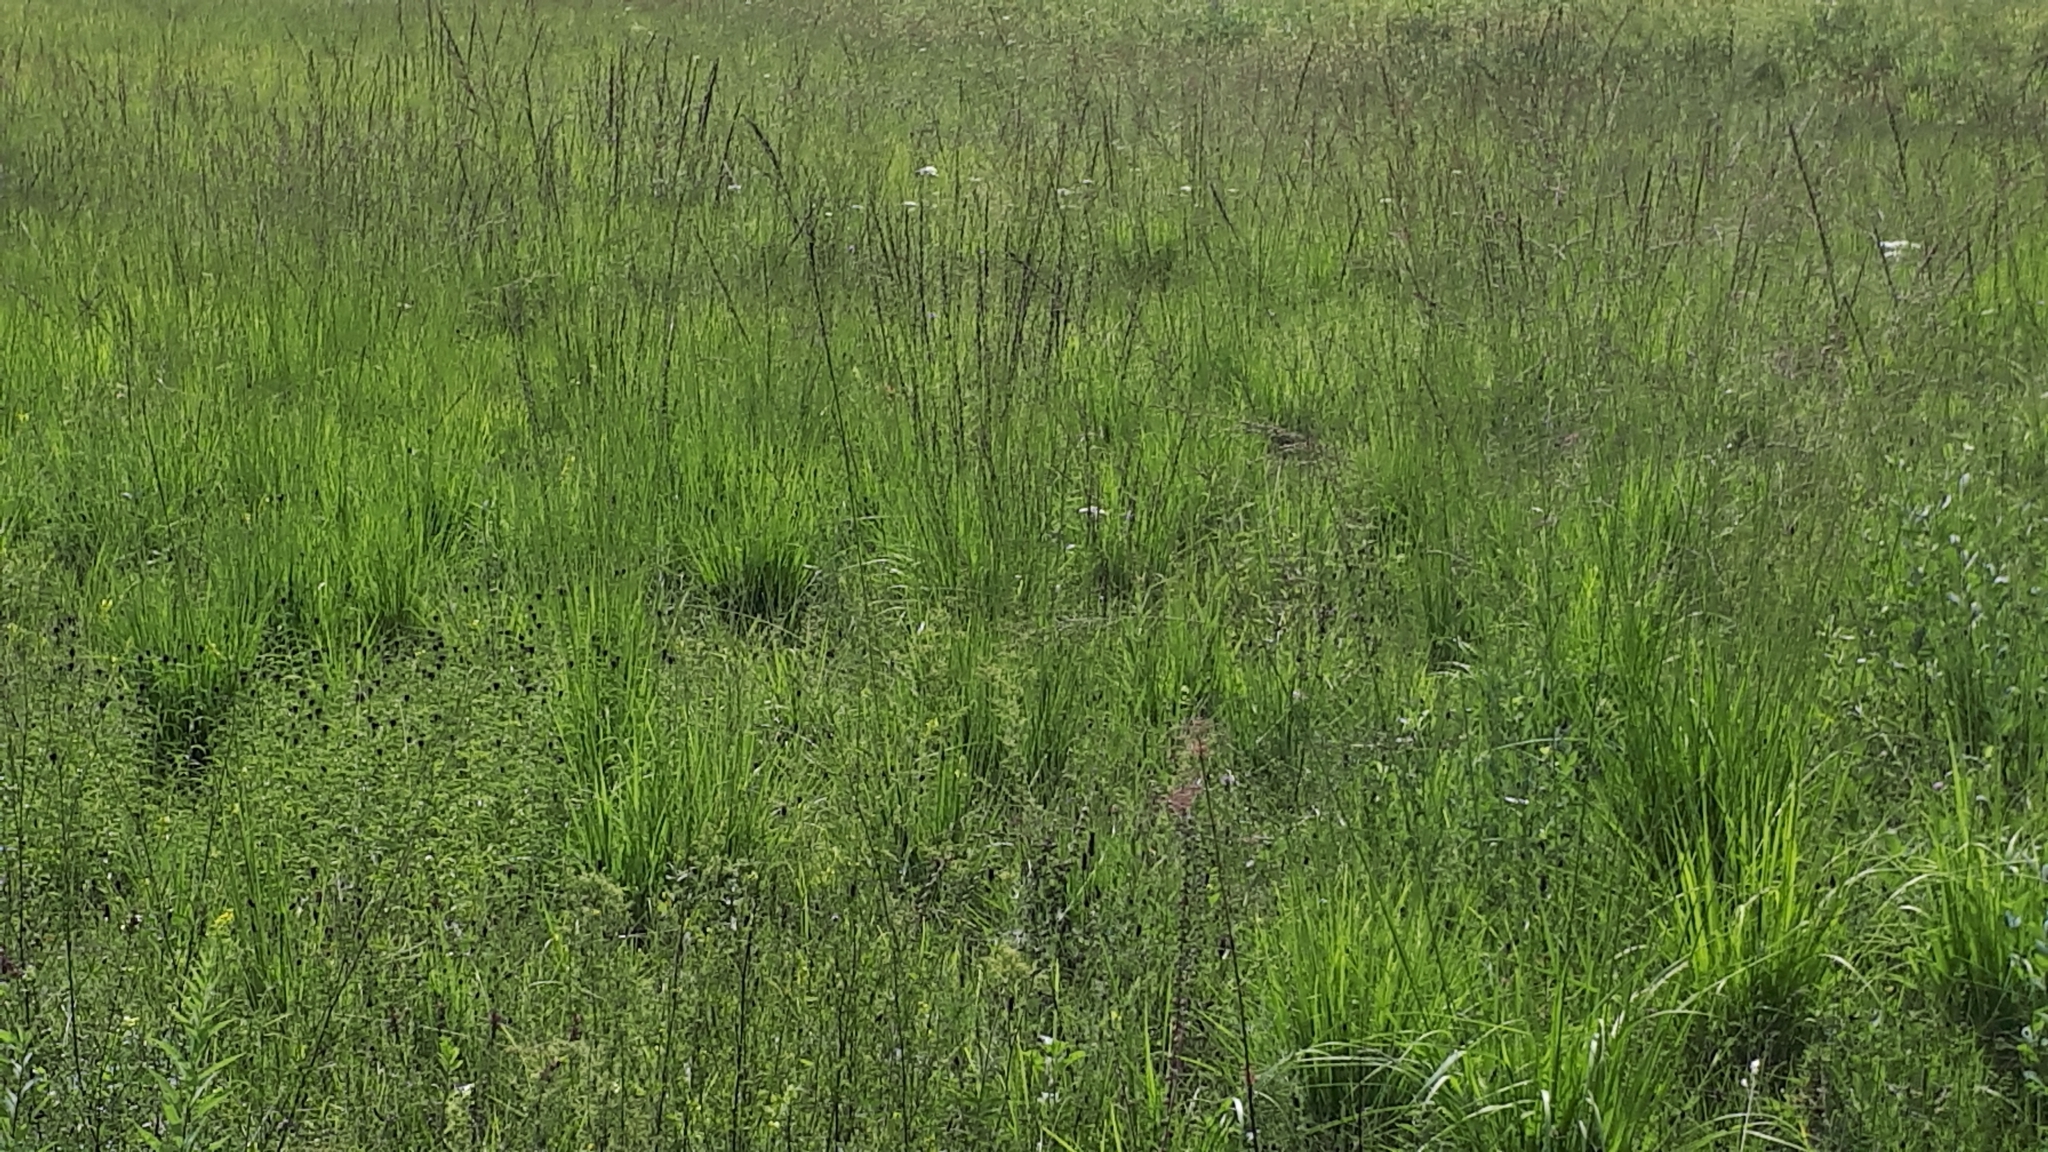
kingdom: Plantae
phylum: Tracheophyta
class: Liliopsida
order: Poales
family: Poaceae
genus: Molinia
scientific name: Molinia arundinacea
